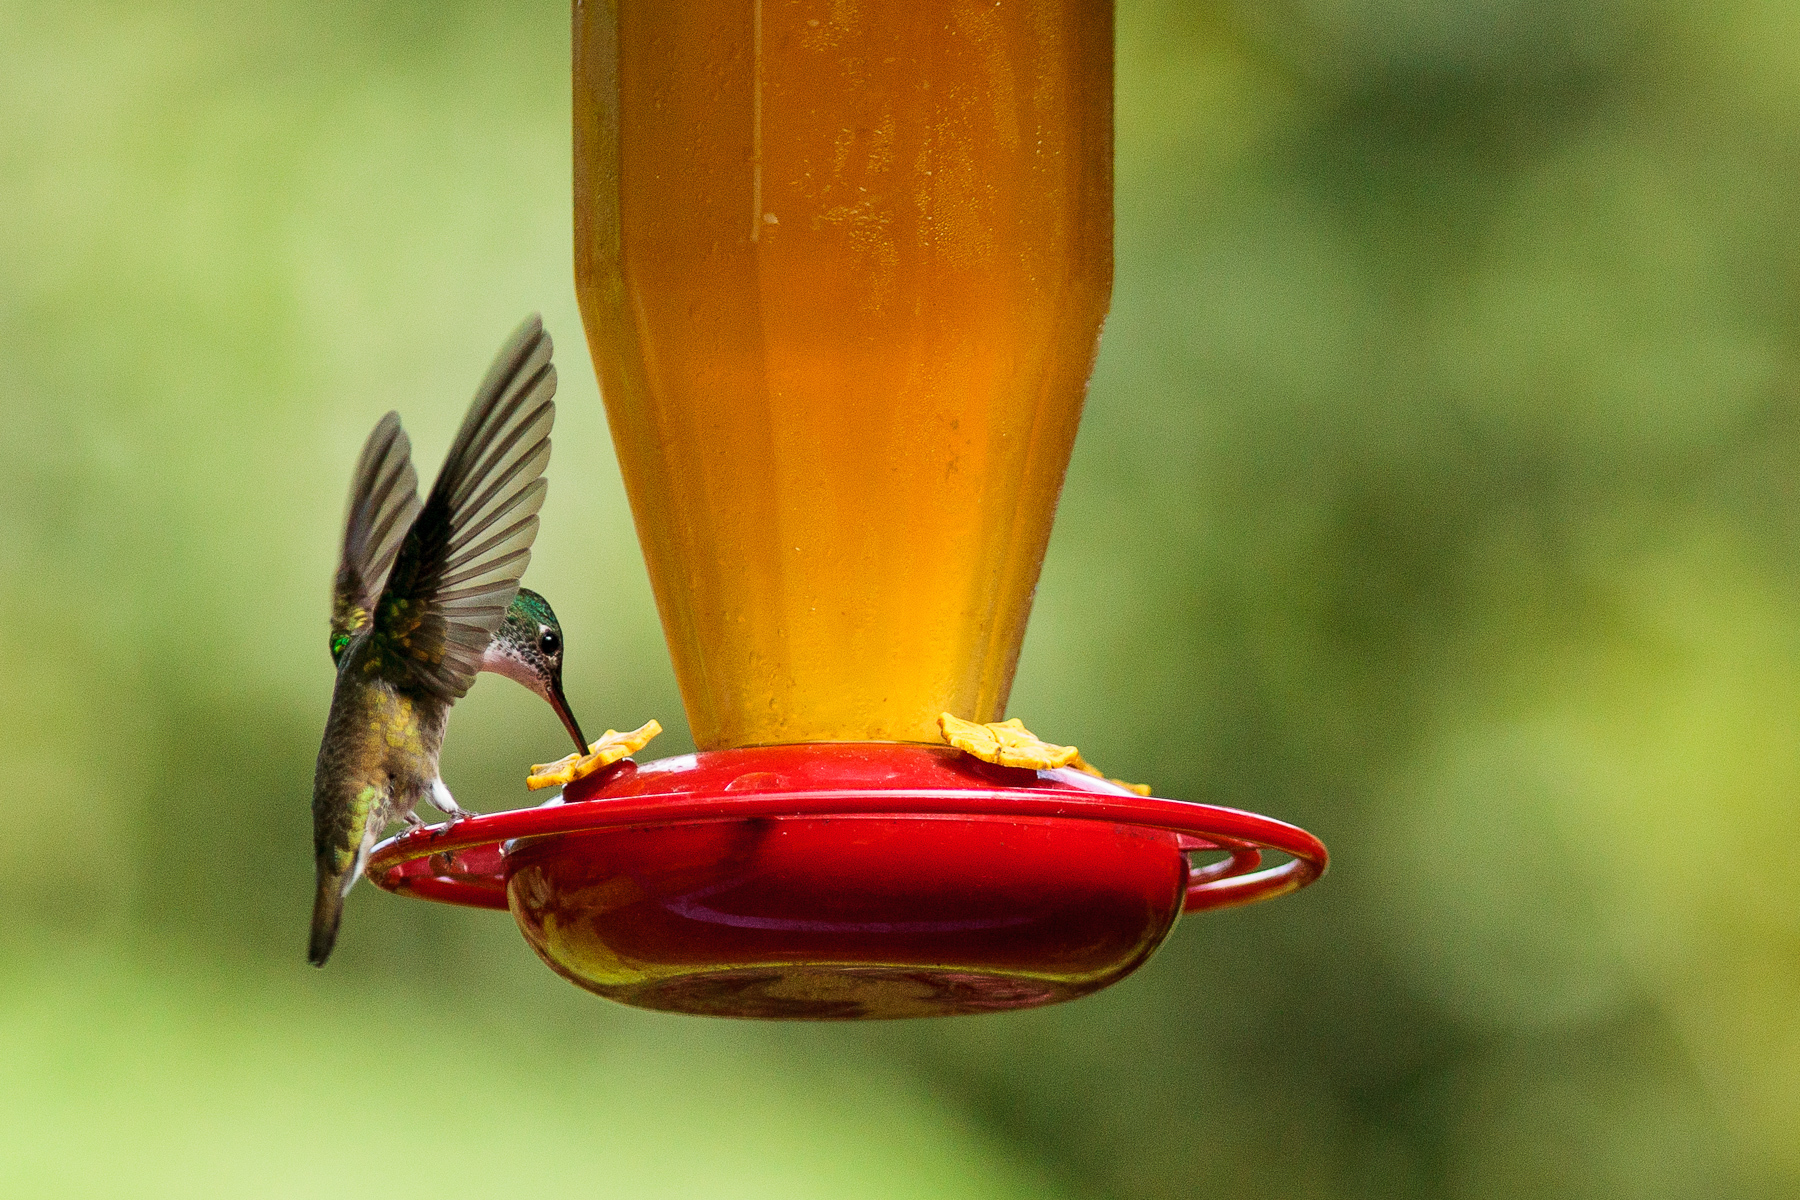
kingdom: Animalia
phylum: Chordata
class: Aves
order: Apodiformes
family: Trochilidae
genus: Saucerottia
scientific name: Saucerottia cyanocephala
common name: Azure-crowned hummingbird
